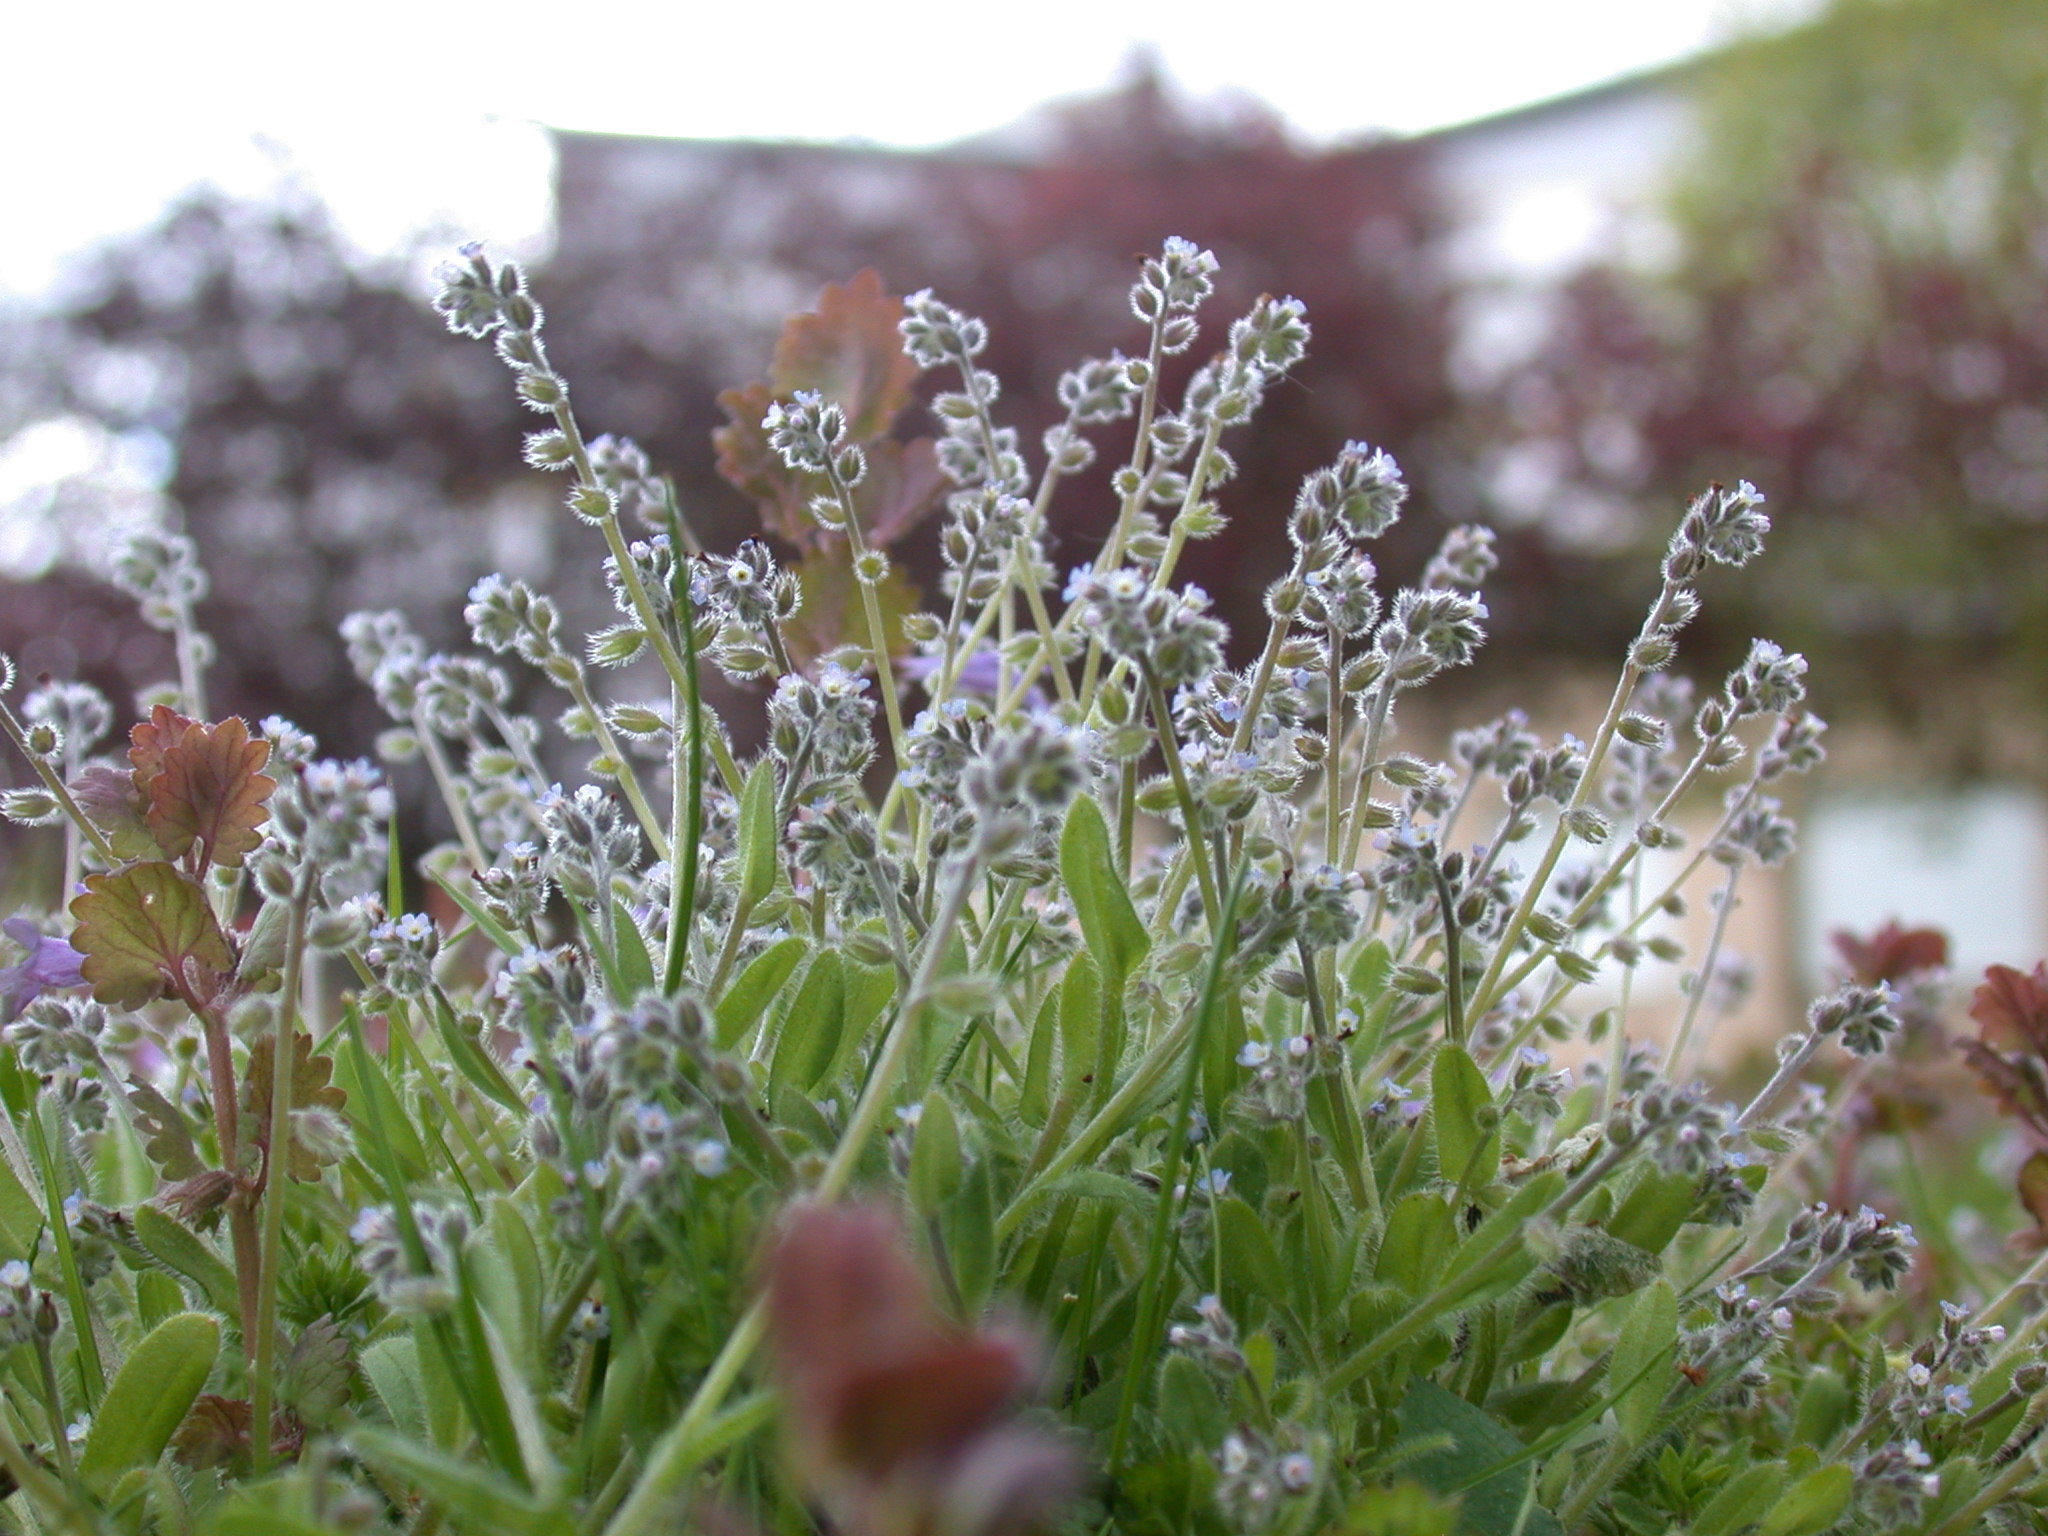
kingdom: Plantae
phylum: Tracheophyta
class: Magnoliopsida
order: Boraginales
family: Boraginaceae
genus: Myosotis
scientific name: Myosotis ramosissima
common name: Early forget-me-not
